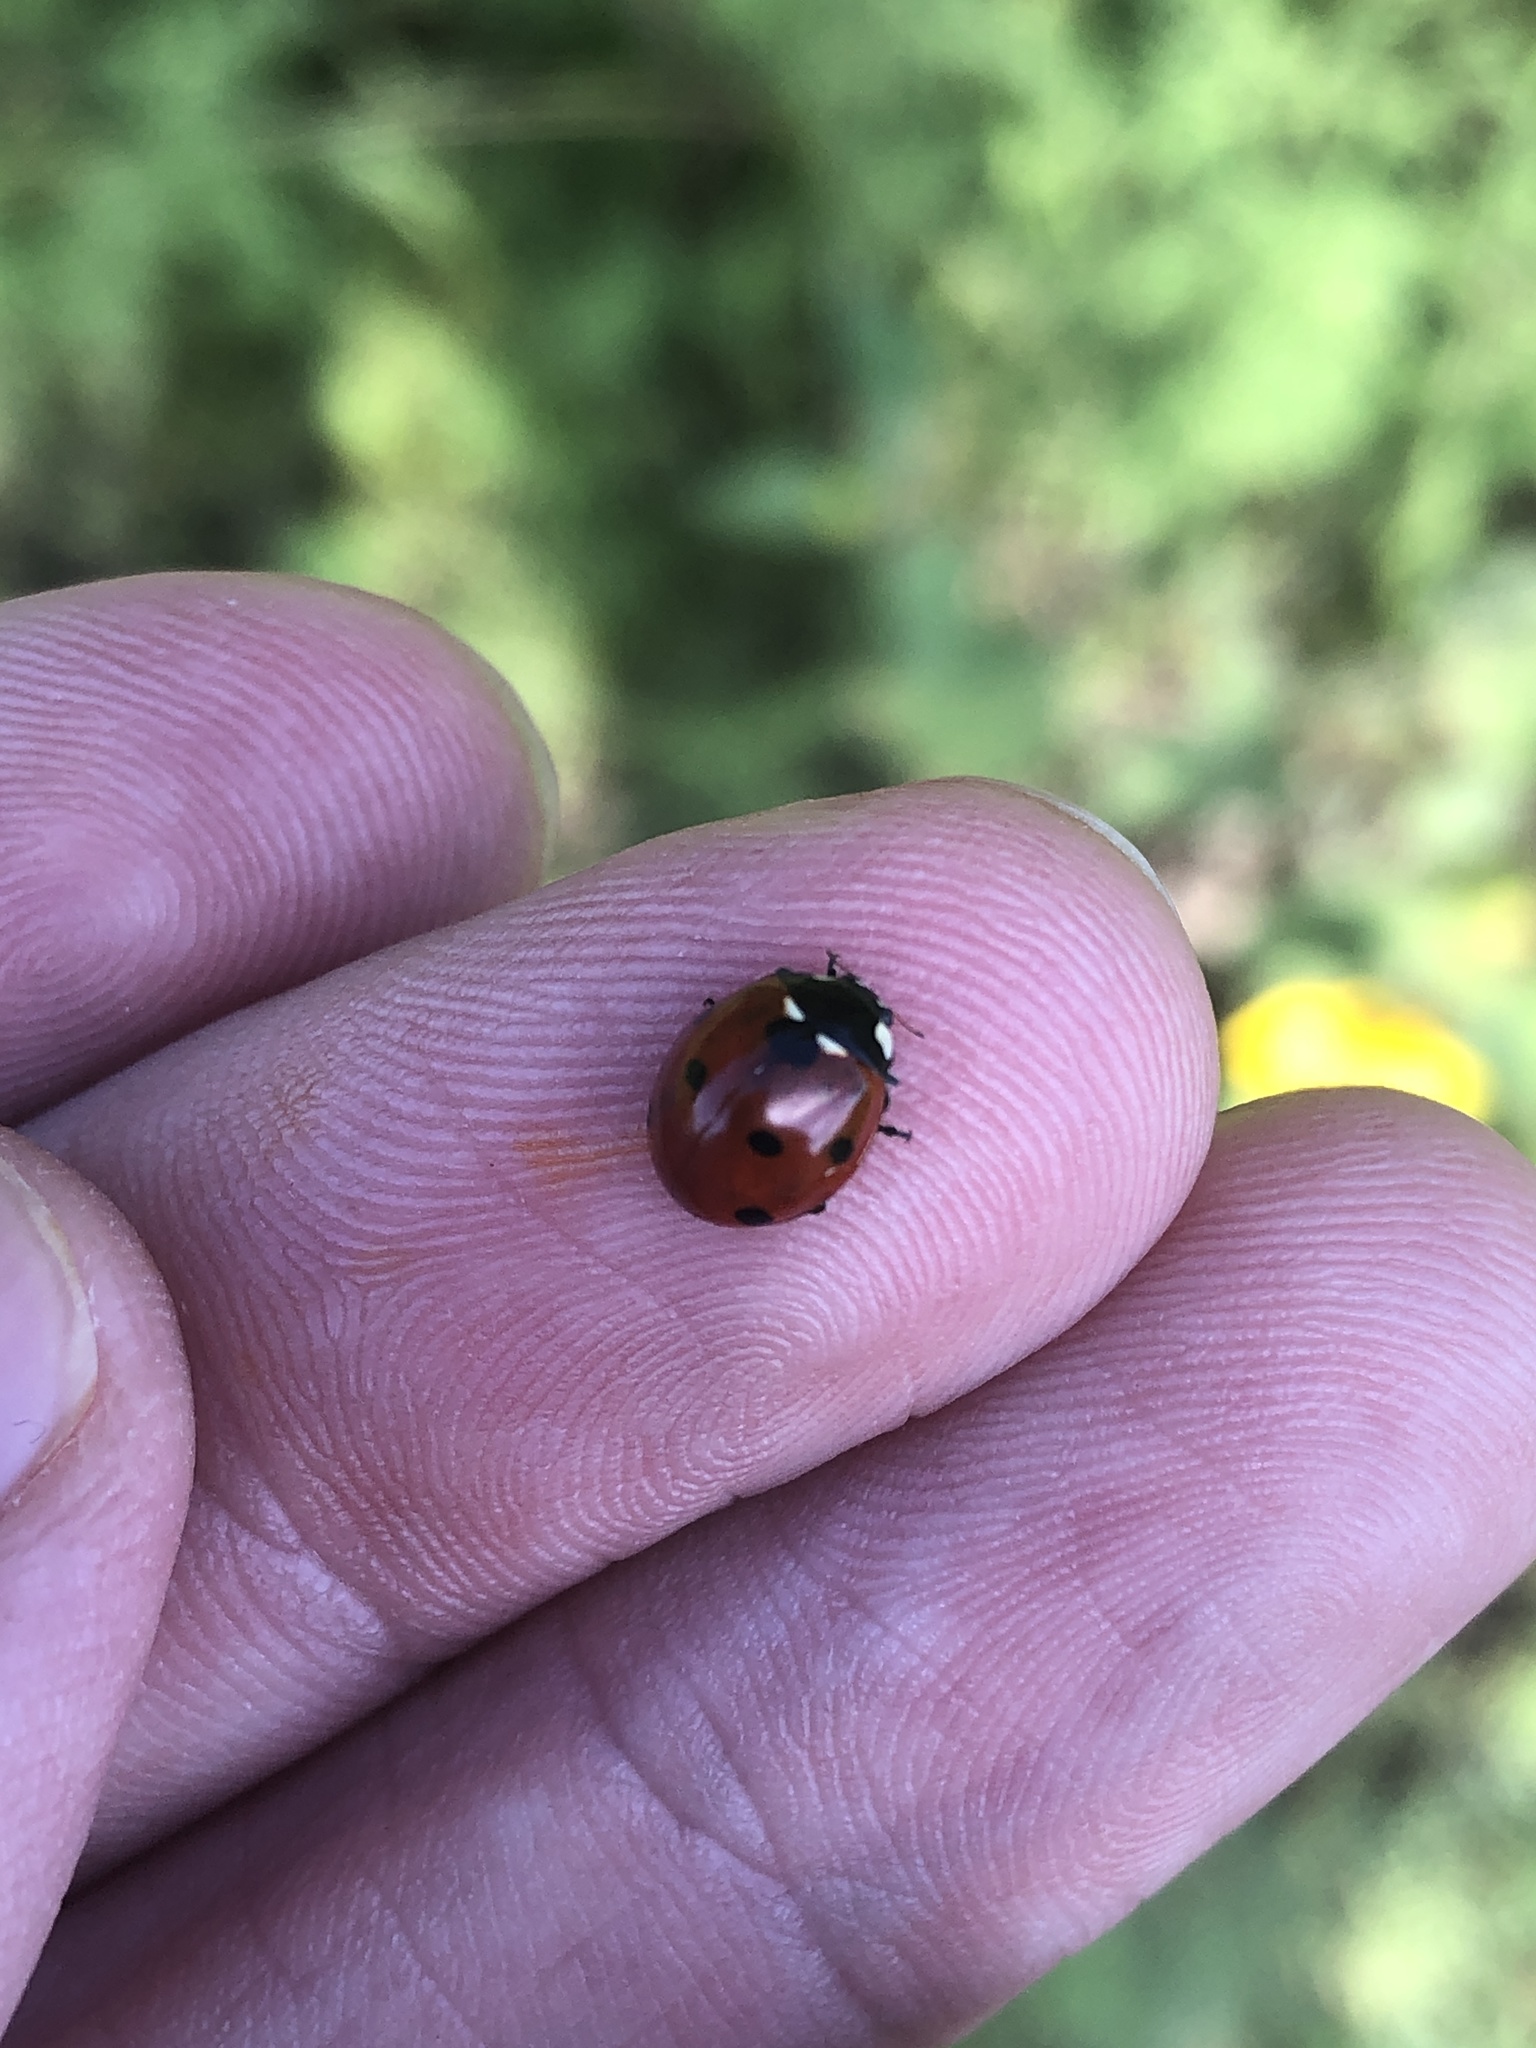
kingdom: Animalia
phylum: Arthropoda
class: Insecta
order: Coleoptera
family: Coccinellidae
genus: Coccinella
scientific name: Coccinella septempunctata
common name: Sevenspotted lady beetle
